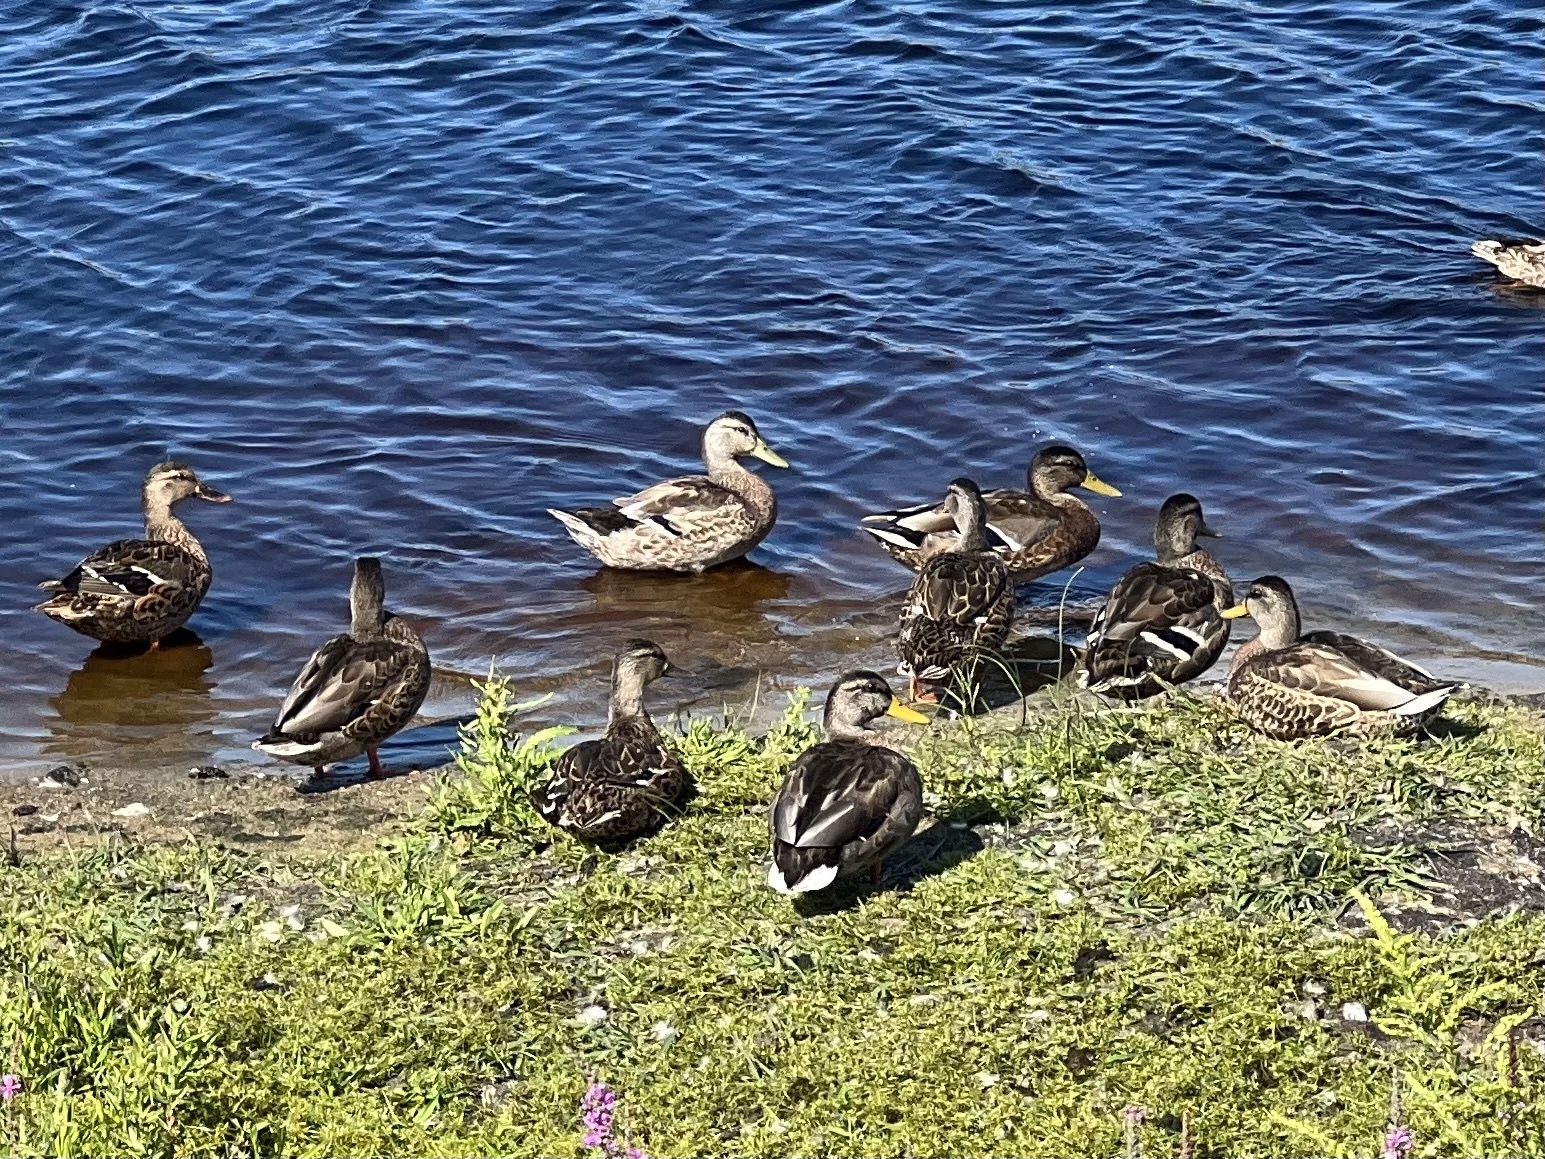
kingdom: Animalia
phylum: Chordata
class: Aves
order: Anseriformes
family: Anatidae
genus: Anas
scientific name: Anas platyrhynchos
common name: Mallard
